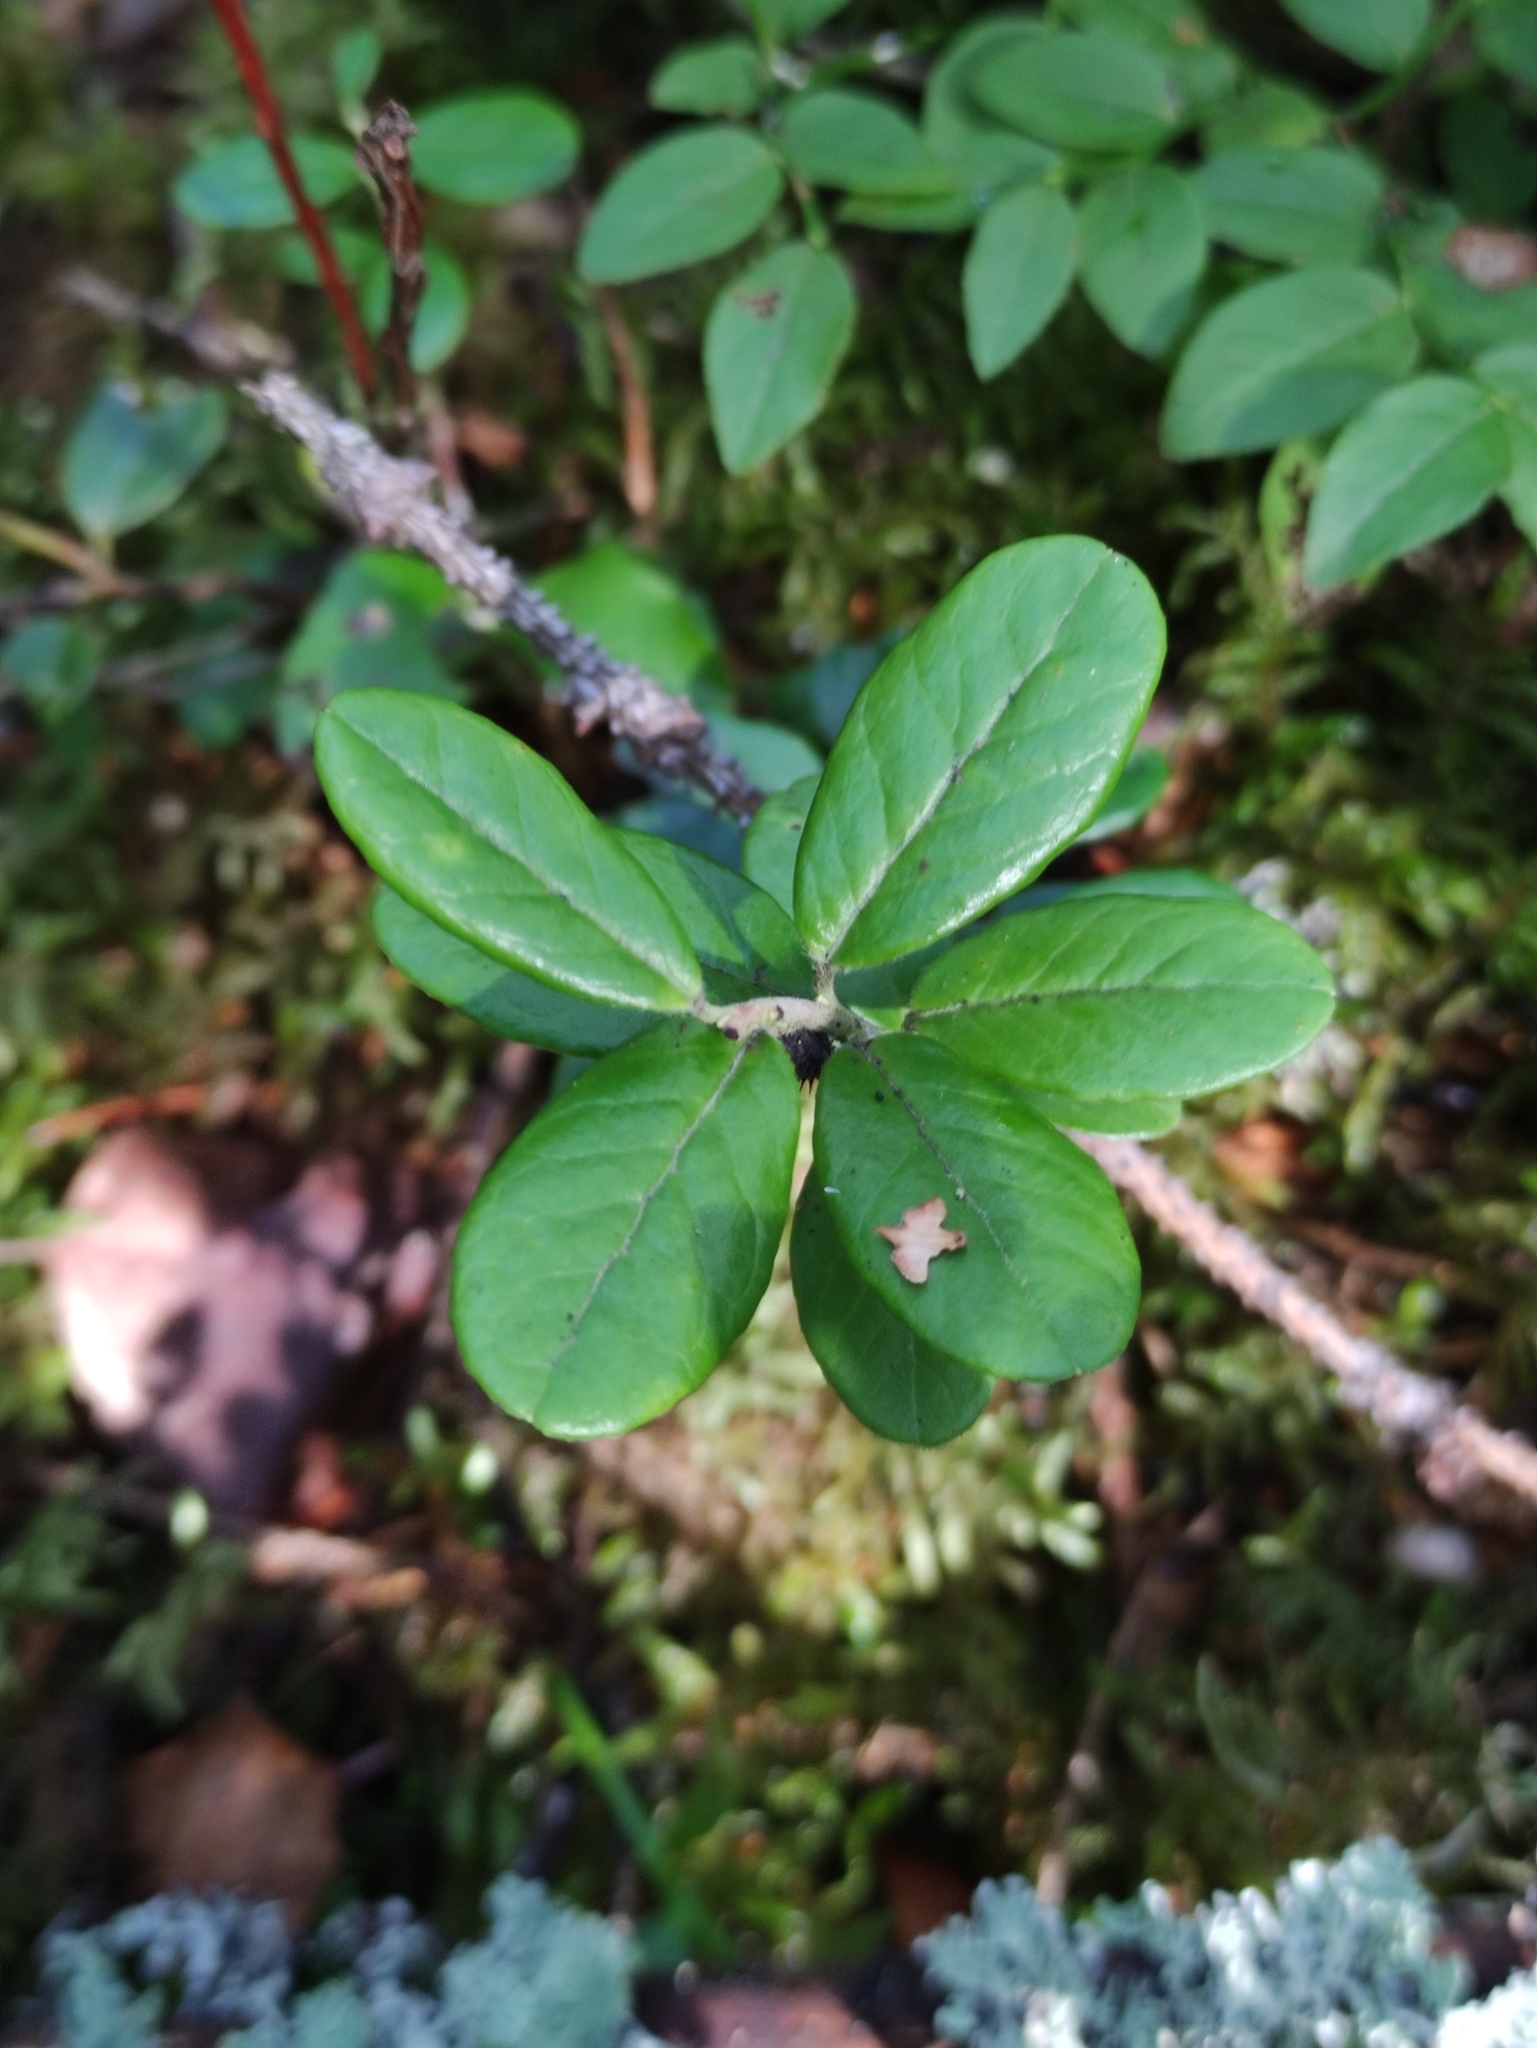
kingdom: Plantae
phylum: Tracheophyta
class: Magnoliopsida
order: Ericales
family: Ericaceae
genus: Vaccinium
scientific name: Vaccinium vitis-idaea
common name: Cowberry
